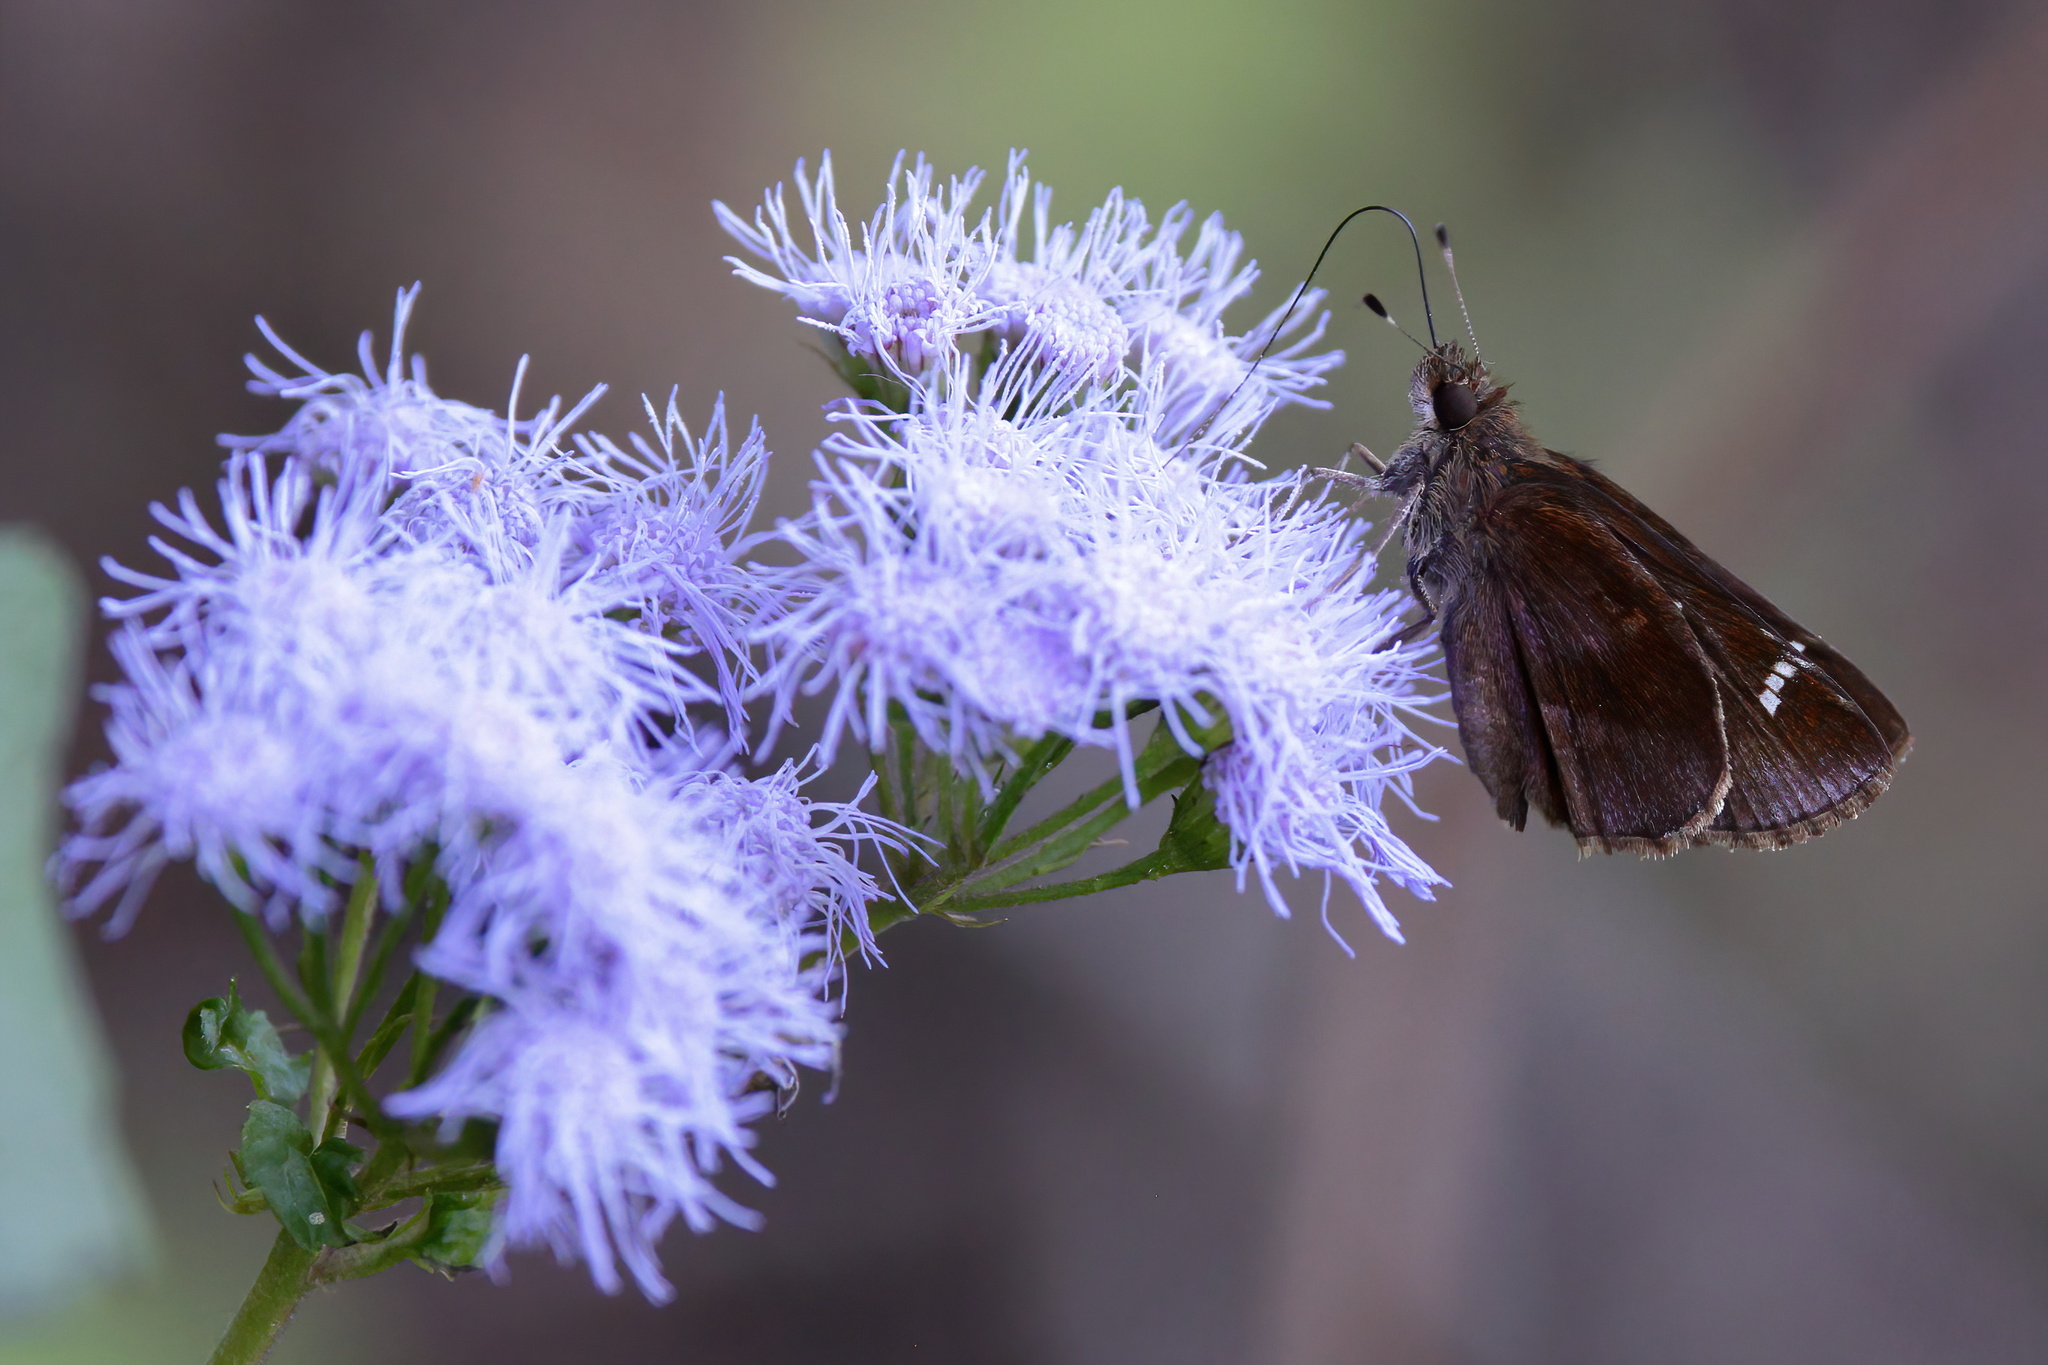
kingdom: Animalia
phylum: Arthropoda
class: Insecta
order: Lepidoptera
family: Hesperiidae
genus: Lerema
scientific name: Lerema accius
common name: Clouded skipper
